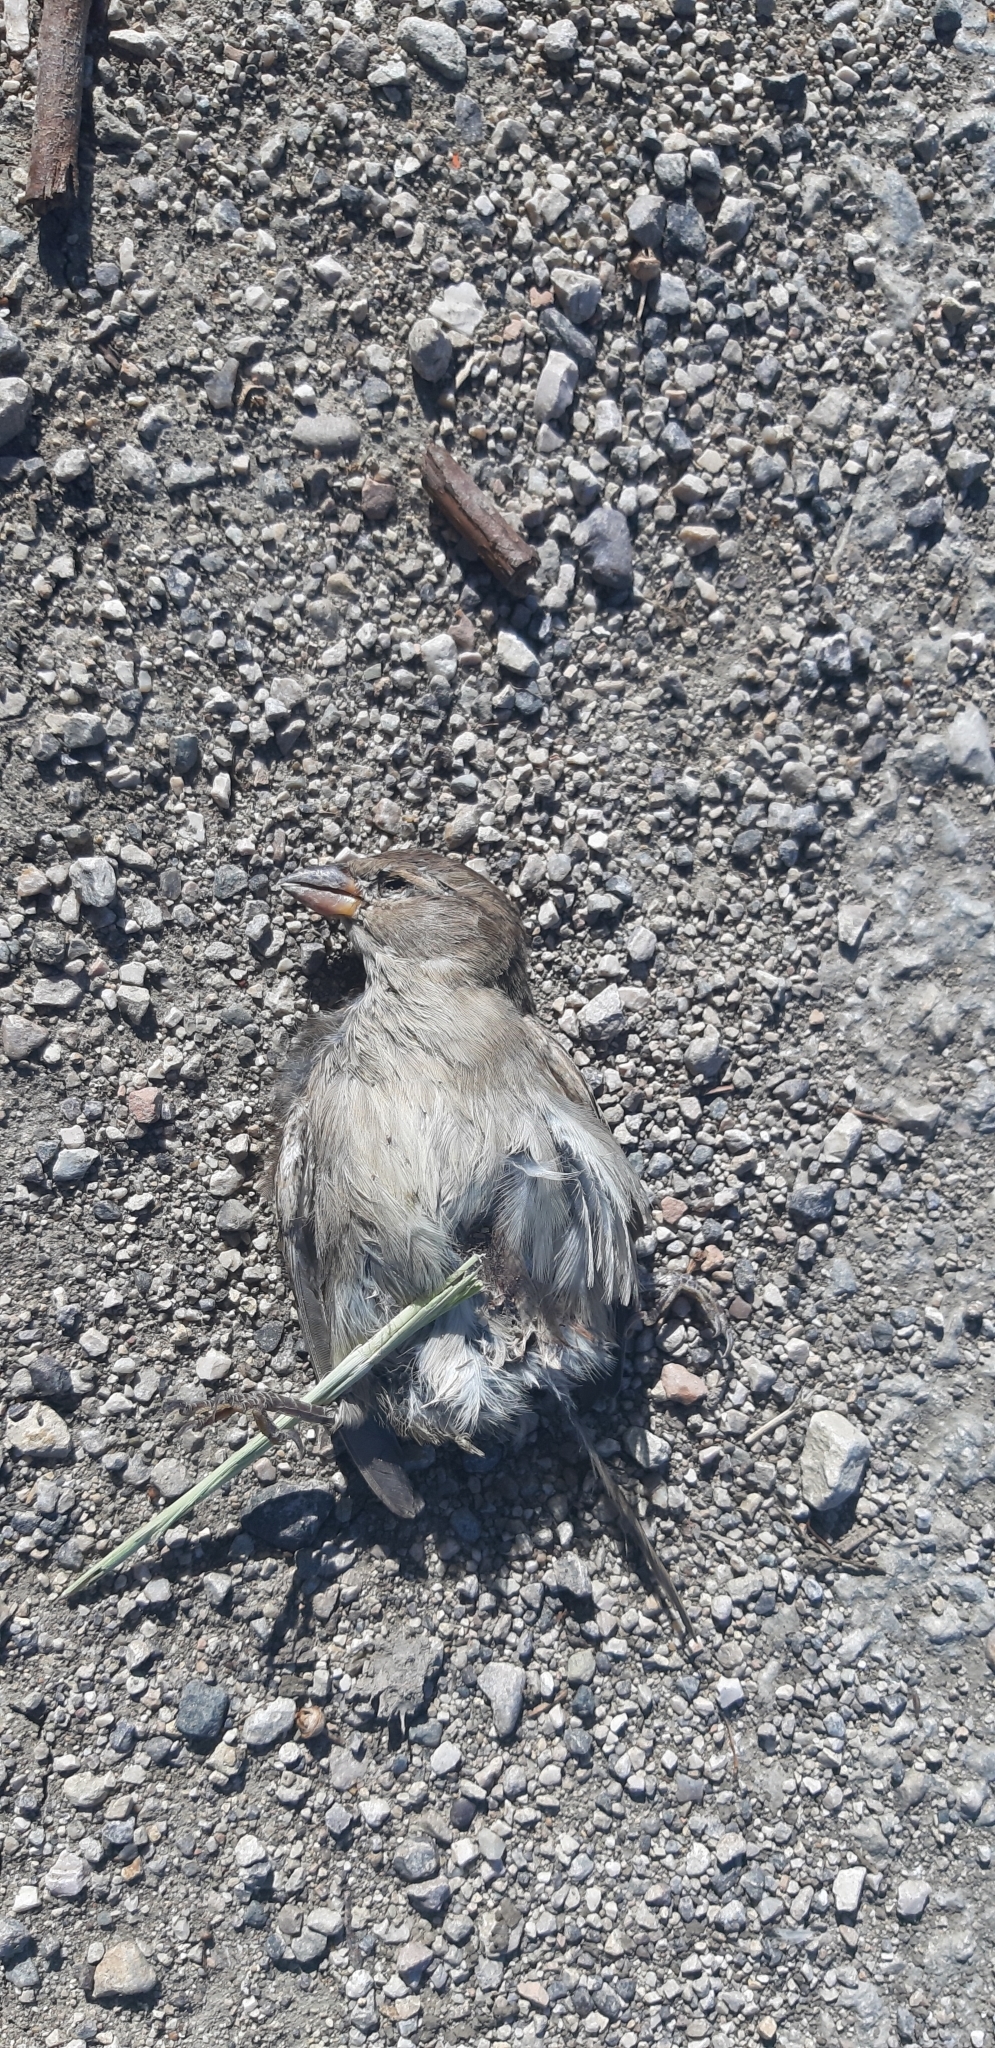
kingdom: Animalia
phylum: Chordata
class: Aves
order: Passeriformes
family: Passeridae
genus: Passer
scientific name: Passer italiae
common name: Italian sparrow
